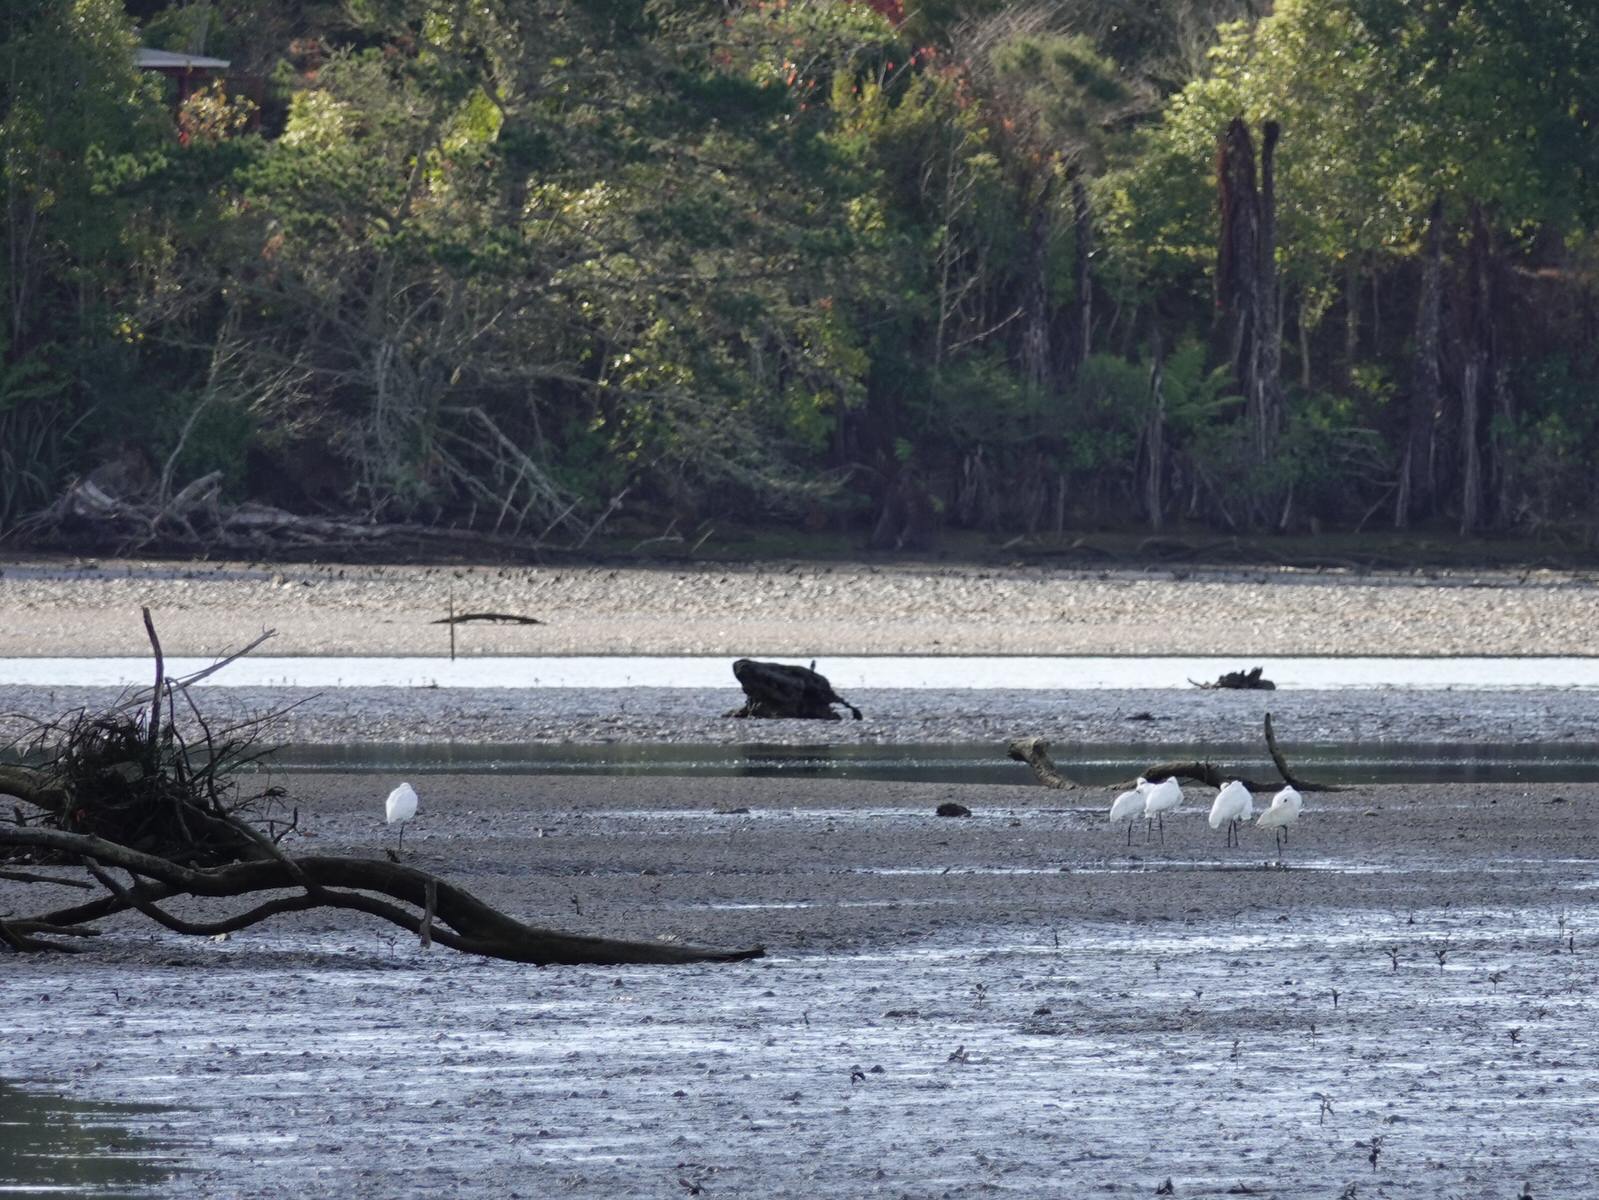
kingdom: Animalia
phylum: Chordata
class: Aves
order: Pelecaniformes
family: Threskiornithidae
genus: Platalea
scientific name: Platalea regia
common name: Royal spoonbill
